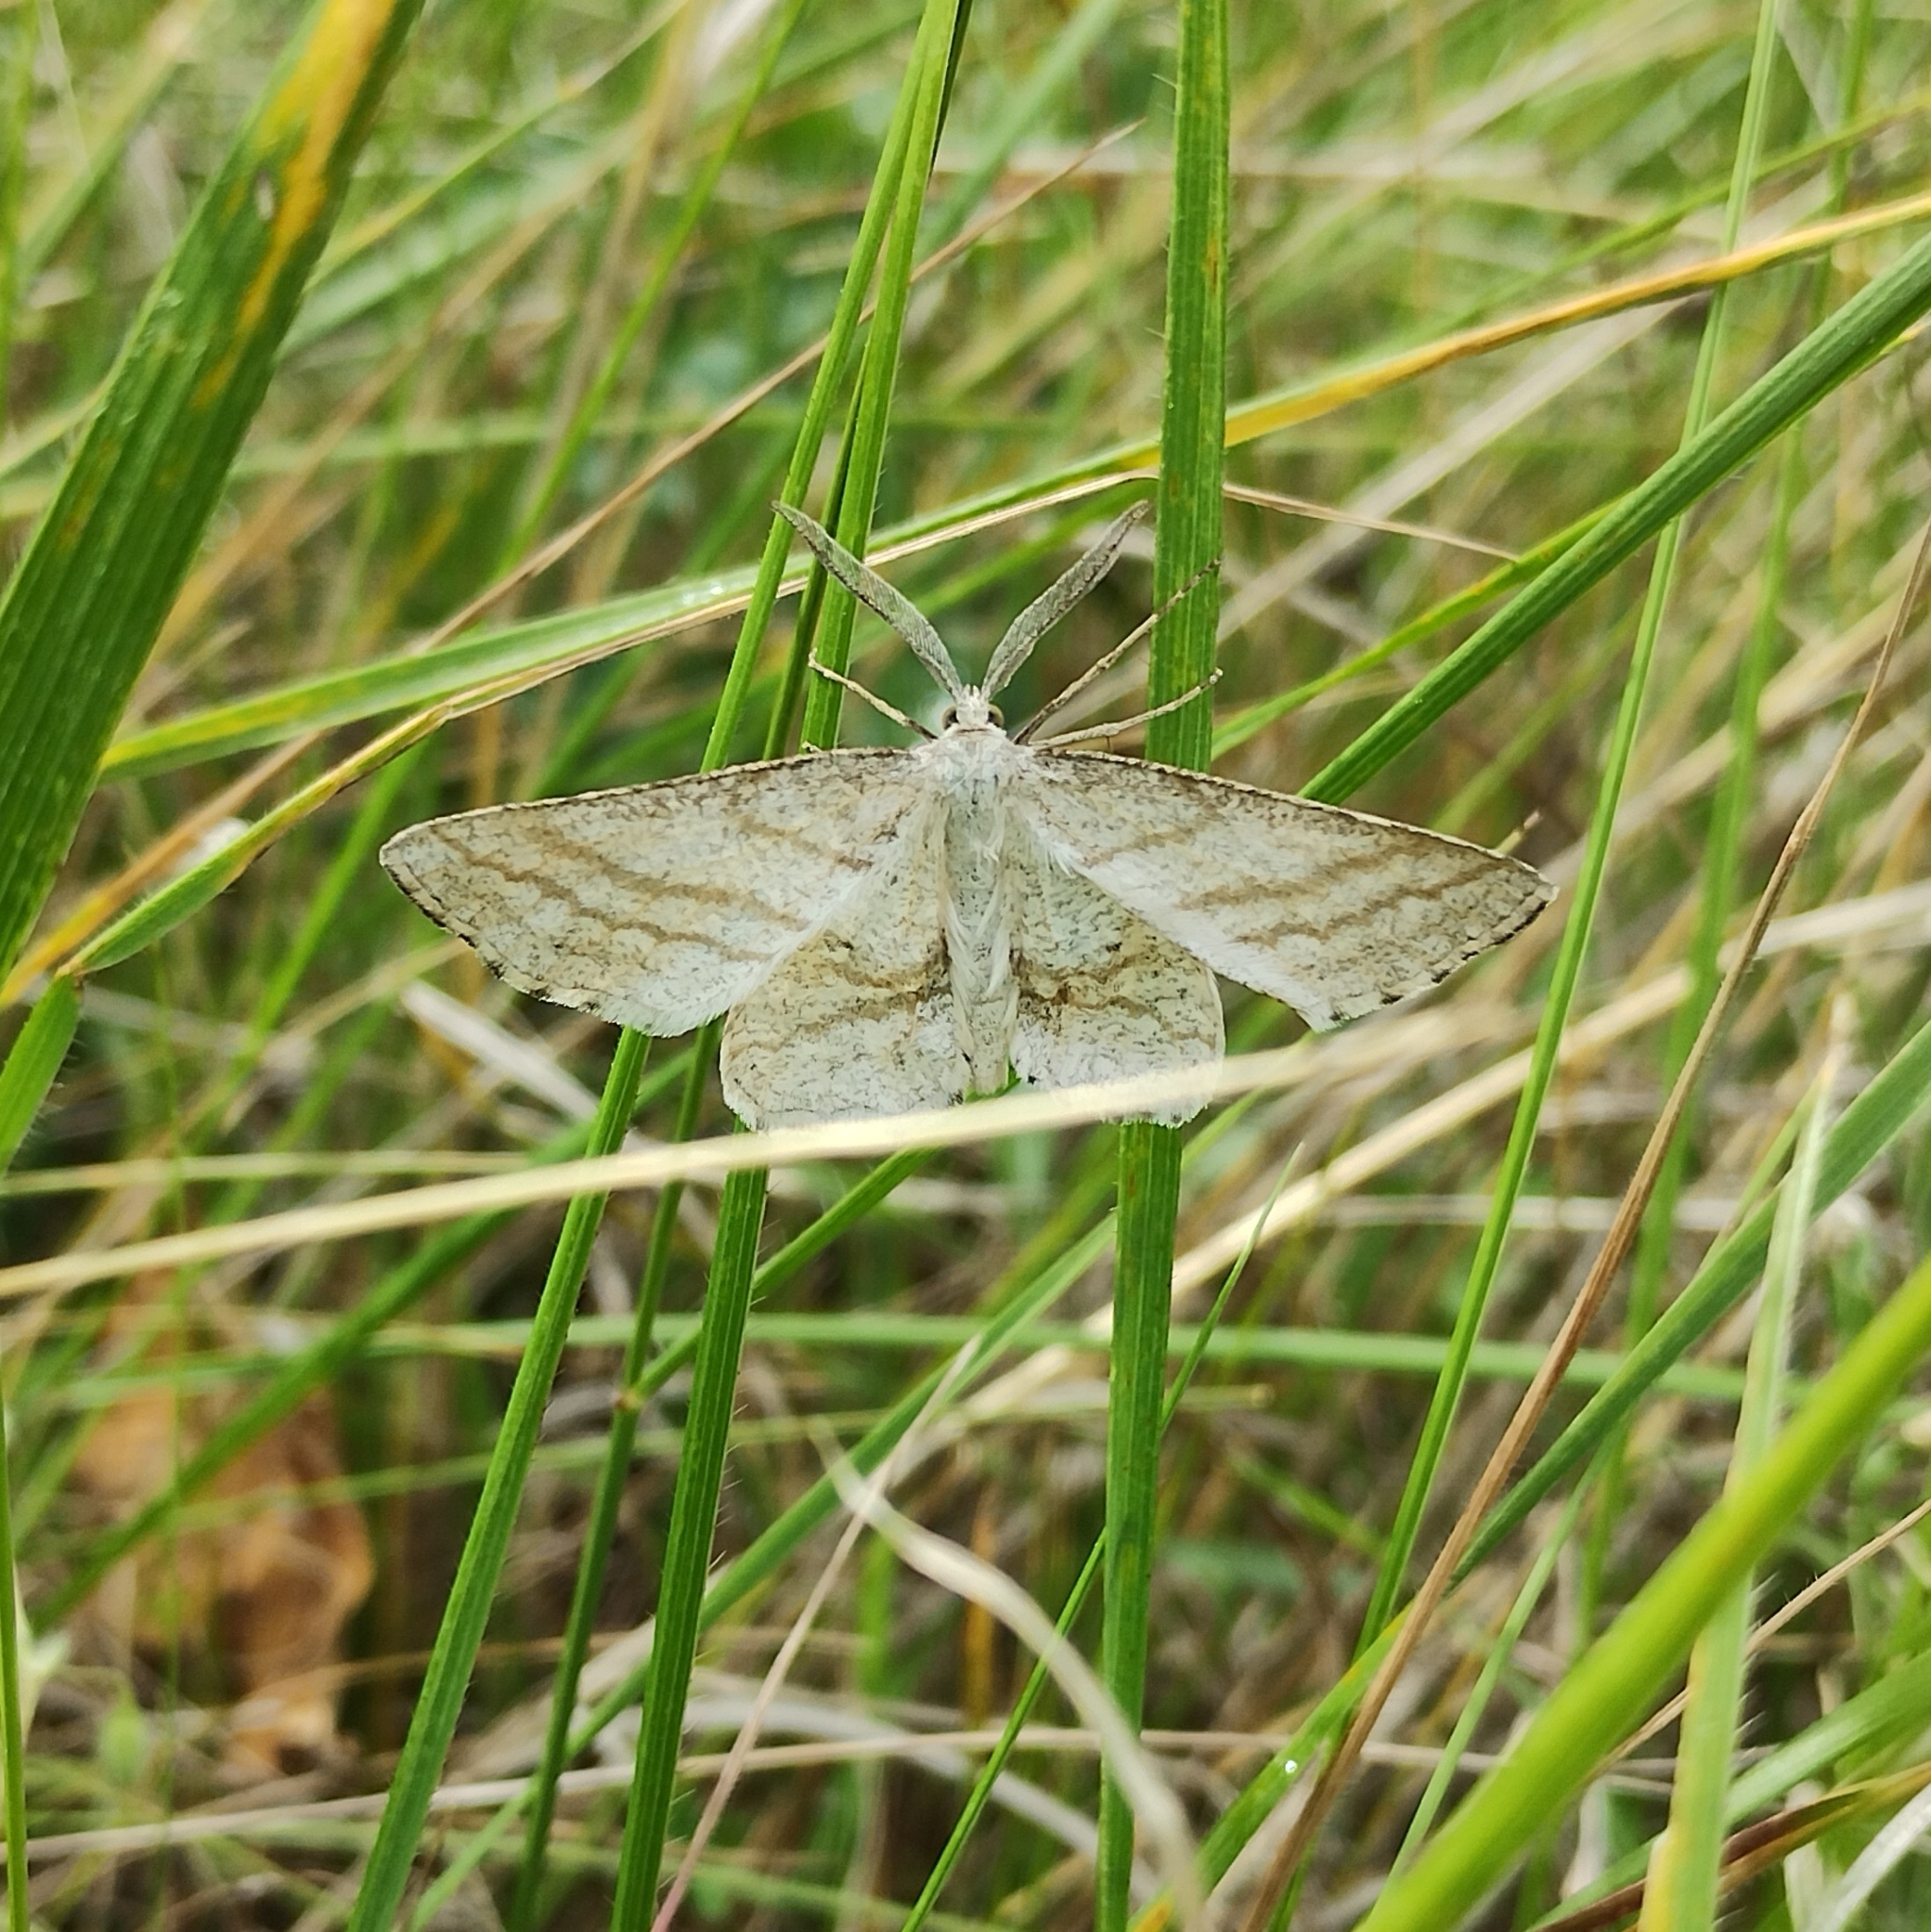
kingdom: Animalia
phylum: Arthropoda
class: Insecta
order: Lepidoptera
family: Geometridae
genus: Perconia
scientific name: Perconia strigillaria
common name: Grass wave
